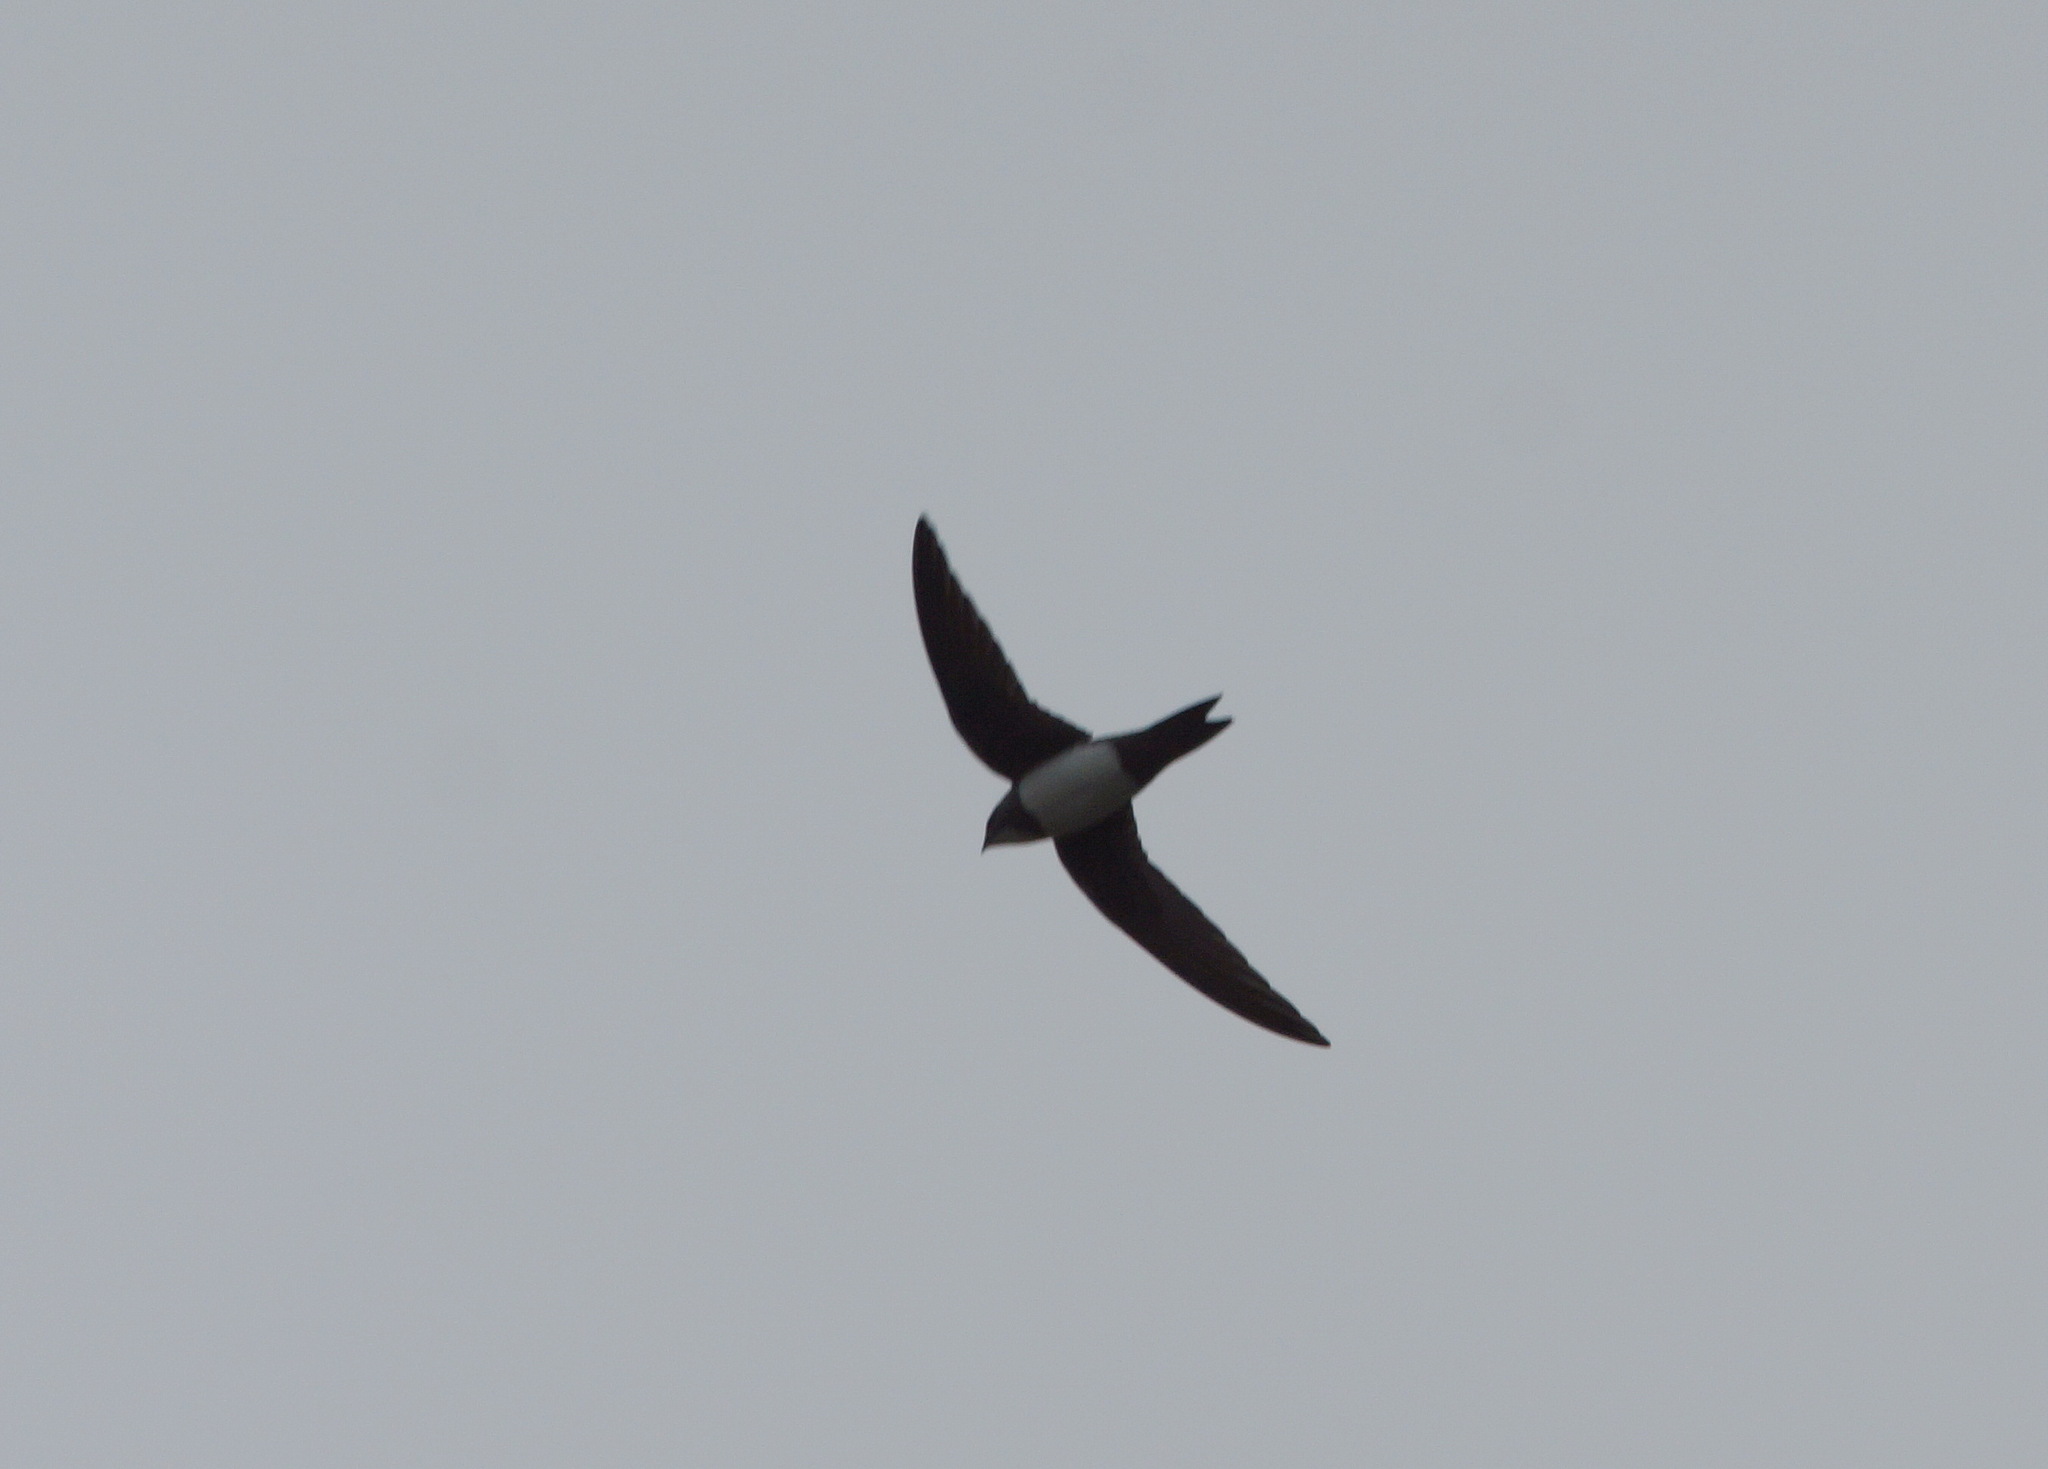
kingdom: Animalia
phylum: Chordata
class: Aves
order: Apodiformes
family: Apodidae
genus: Tachymarptis
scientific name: Tachymarptis melba
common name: Alpine swift
